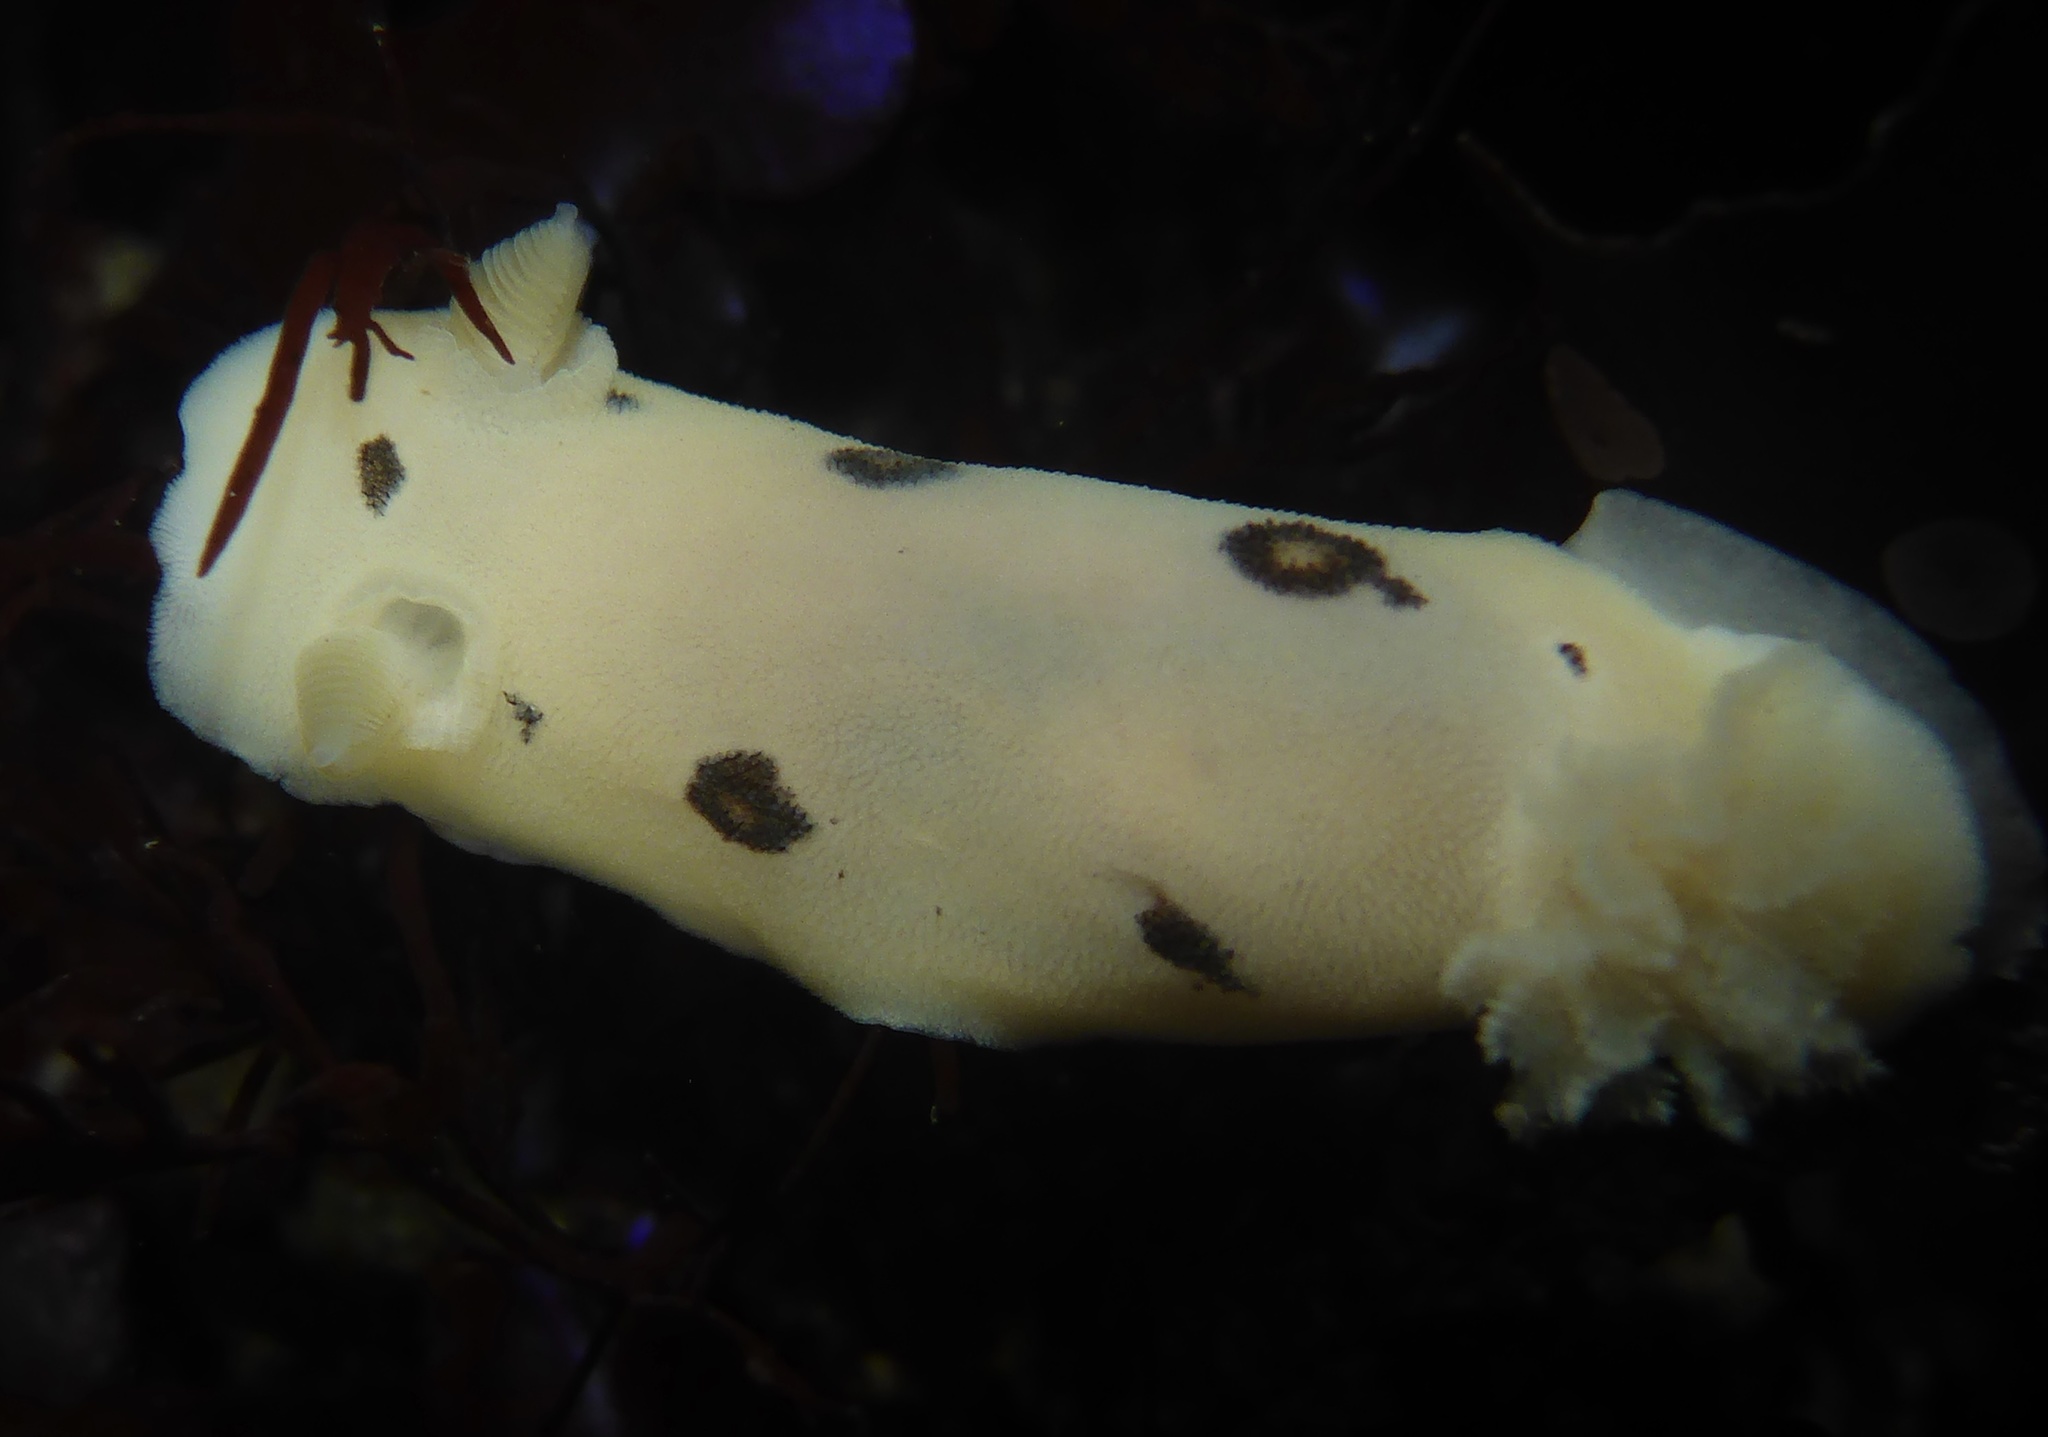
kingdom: Animalia
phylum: Mollusca
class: Gastropoda
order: Nudibranchia
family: Discodorididae
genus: Diaulula
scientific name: Diaulula sandiegensis
